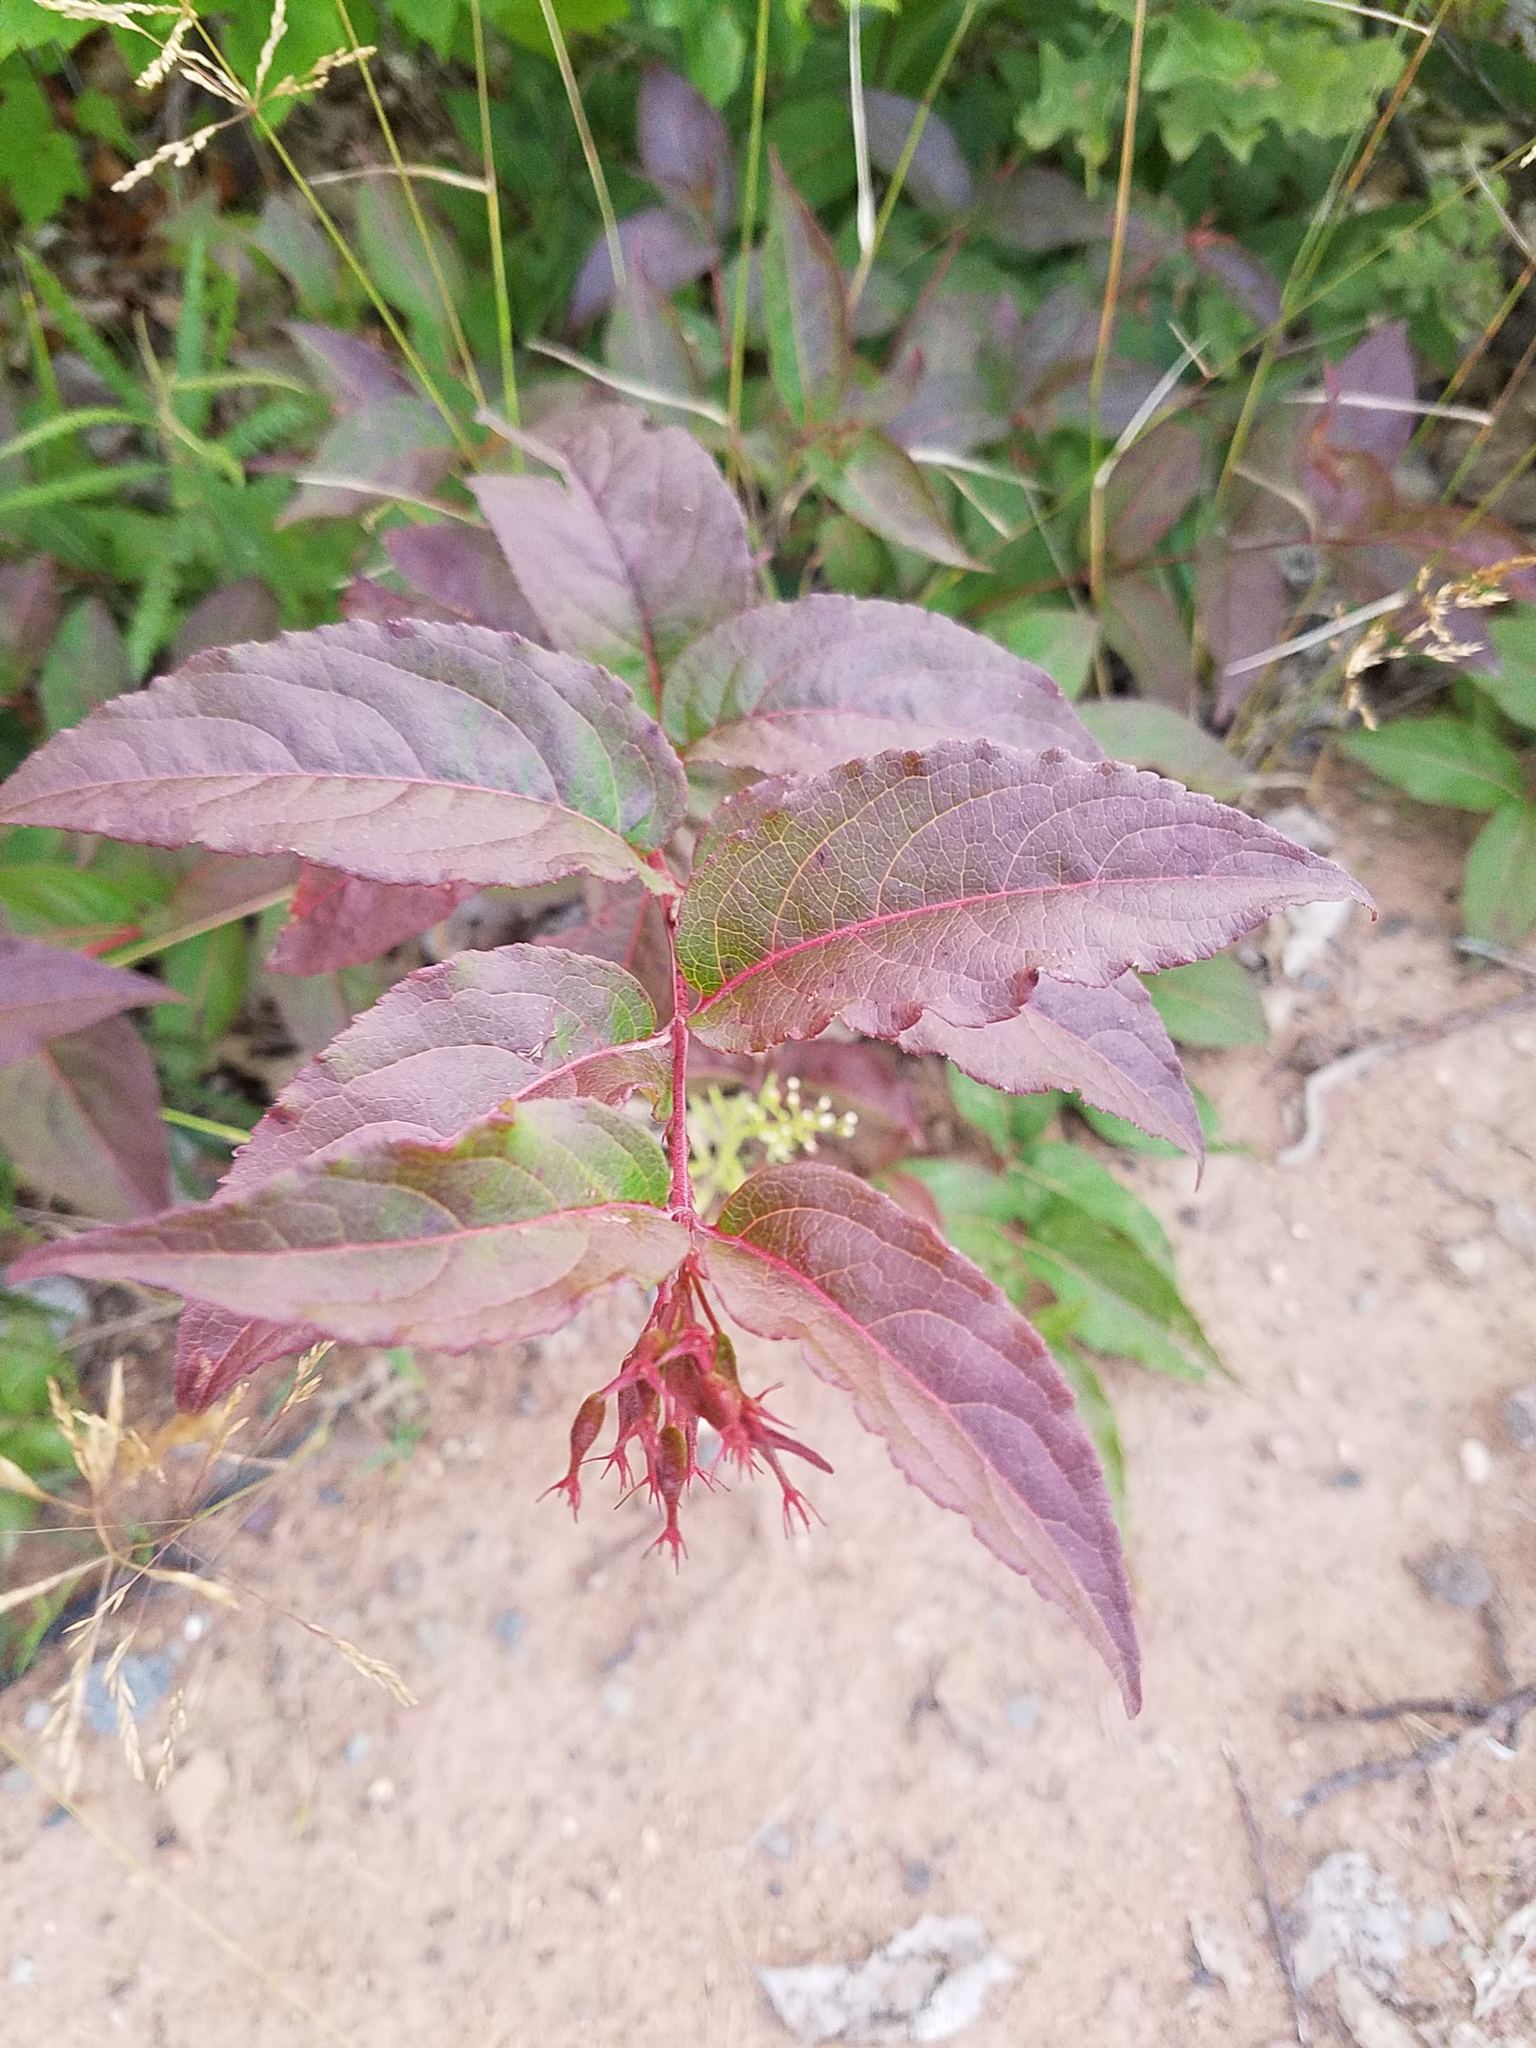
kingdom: Plantae
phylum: Tracheophyta
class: Magnoliopsida
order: Dipsacales
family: Caprifoliaceae
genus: Diervilla
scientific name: Diervilla lonicera
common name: Bush-honeysuckle
